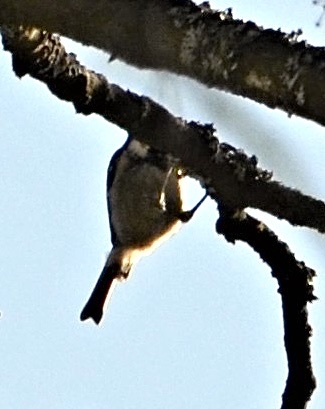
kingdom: Animalia
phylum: Chordata
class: Aves
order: Passeriformes
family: Paridae
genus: Periparus
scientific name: Periparus ater
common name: Coal tit
